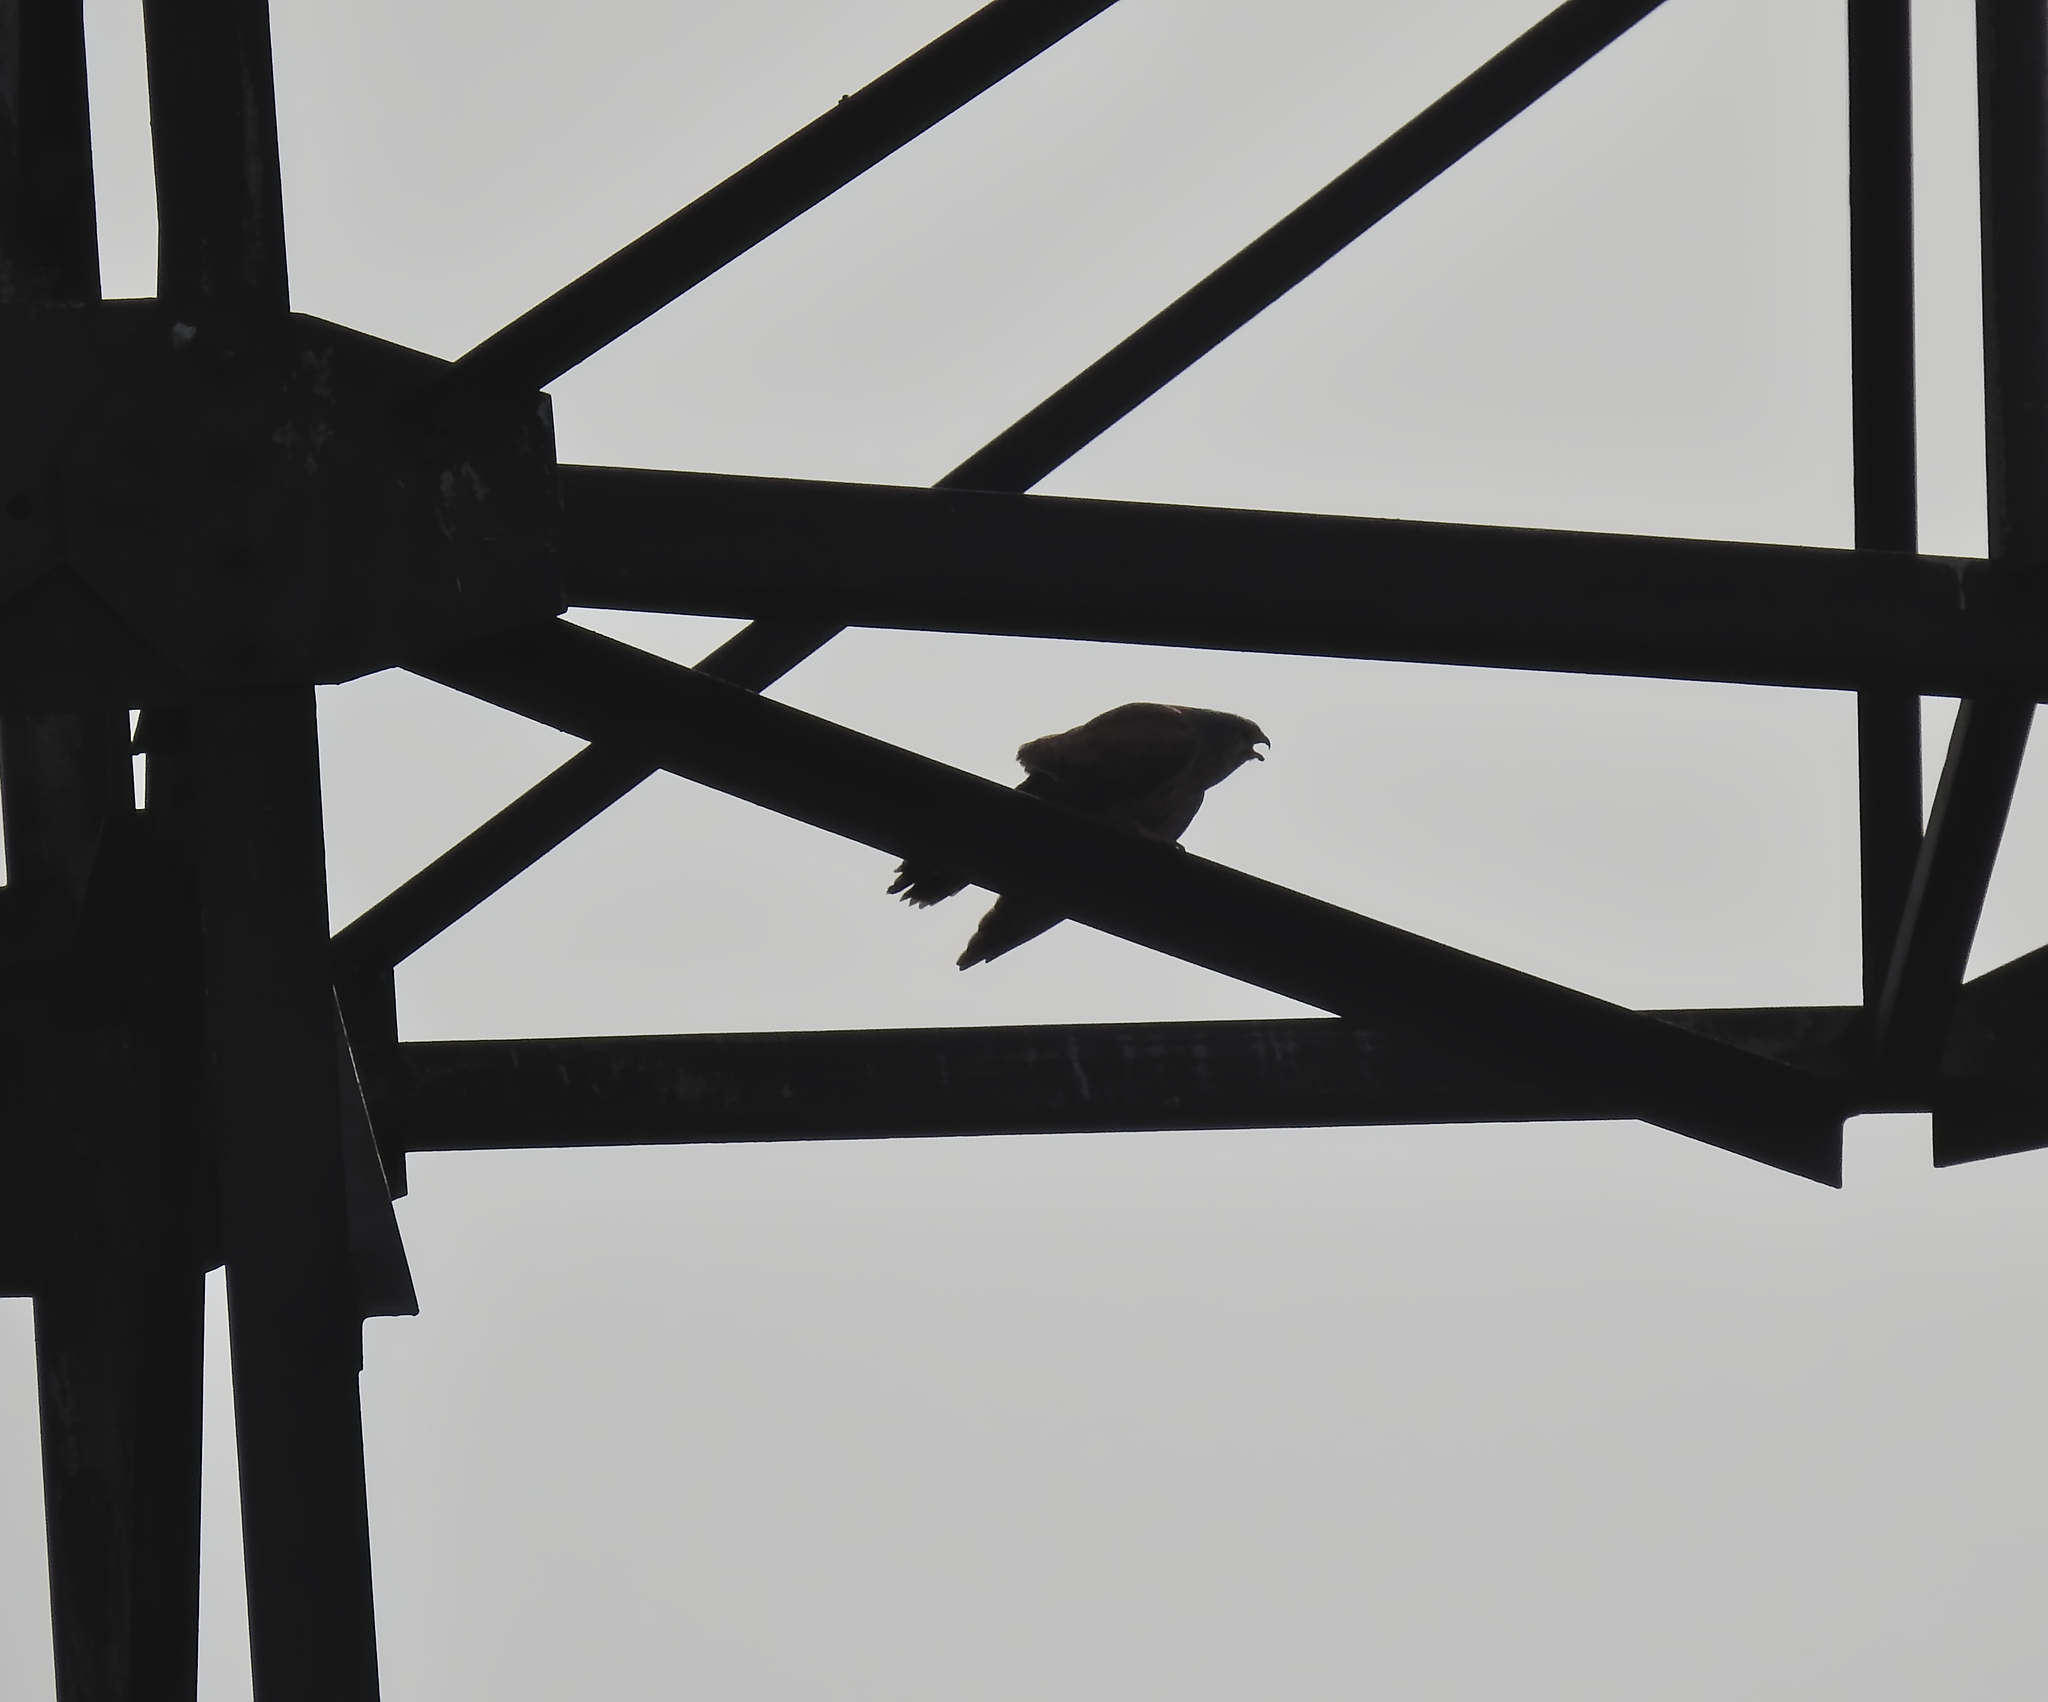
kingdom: Animalia
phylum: Chordata
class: Aves
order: Falconiformes
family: Falconidae
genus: Falco
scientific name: Falco tinnunculus
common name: Common kestrel
